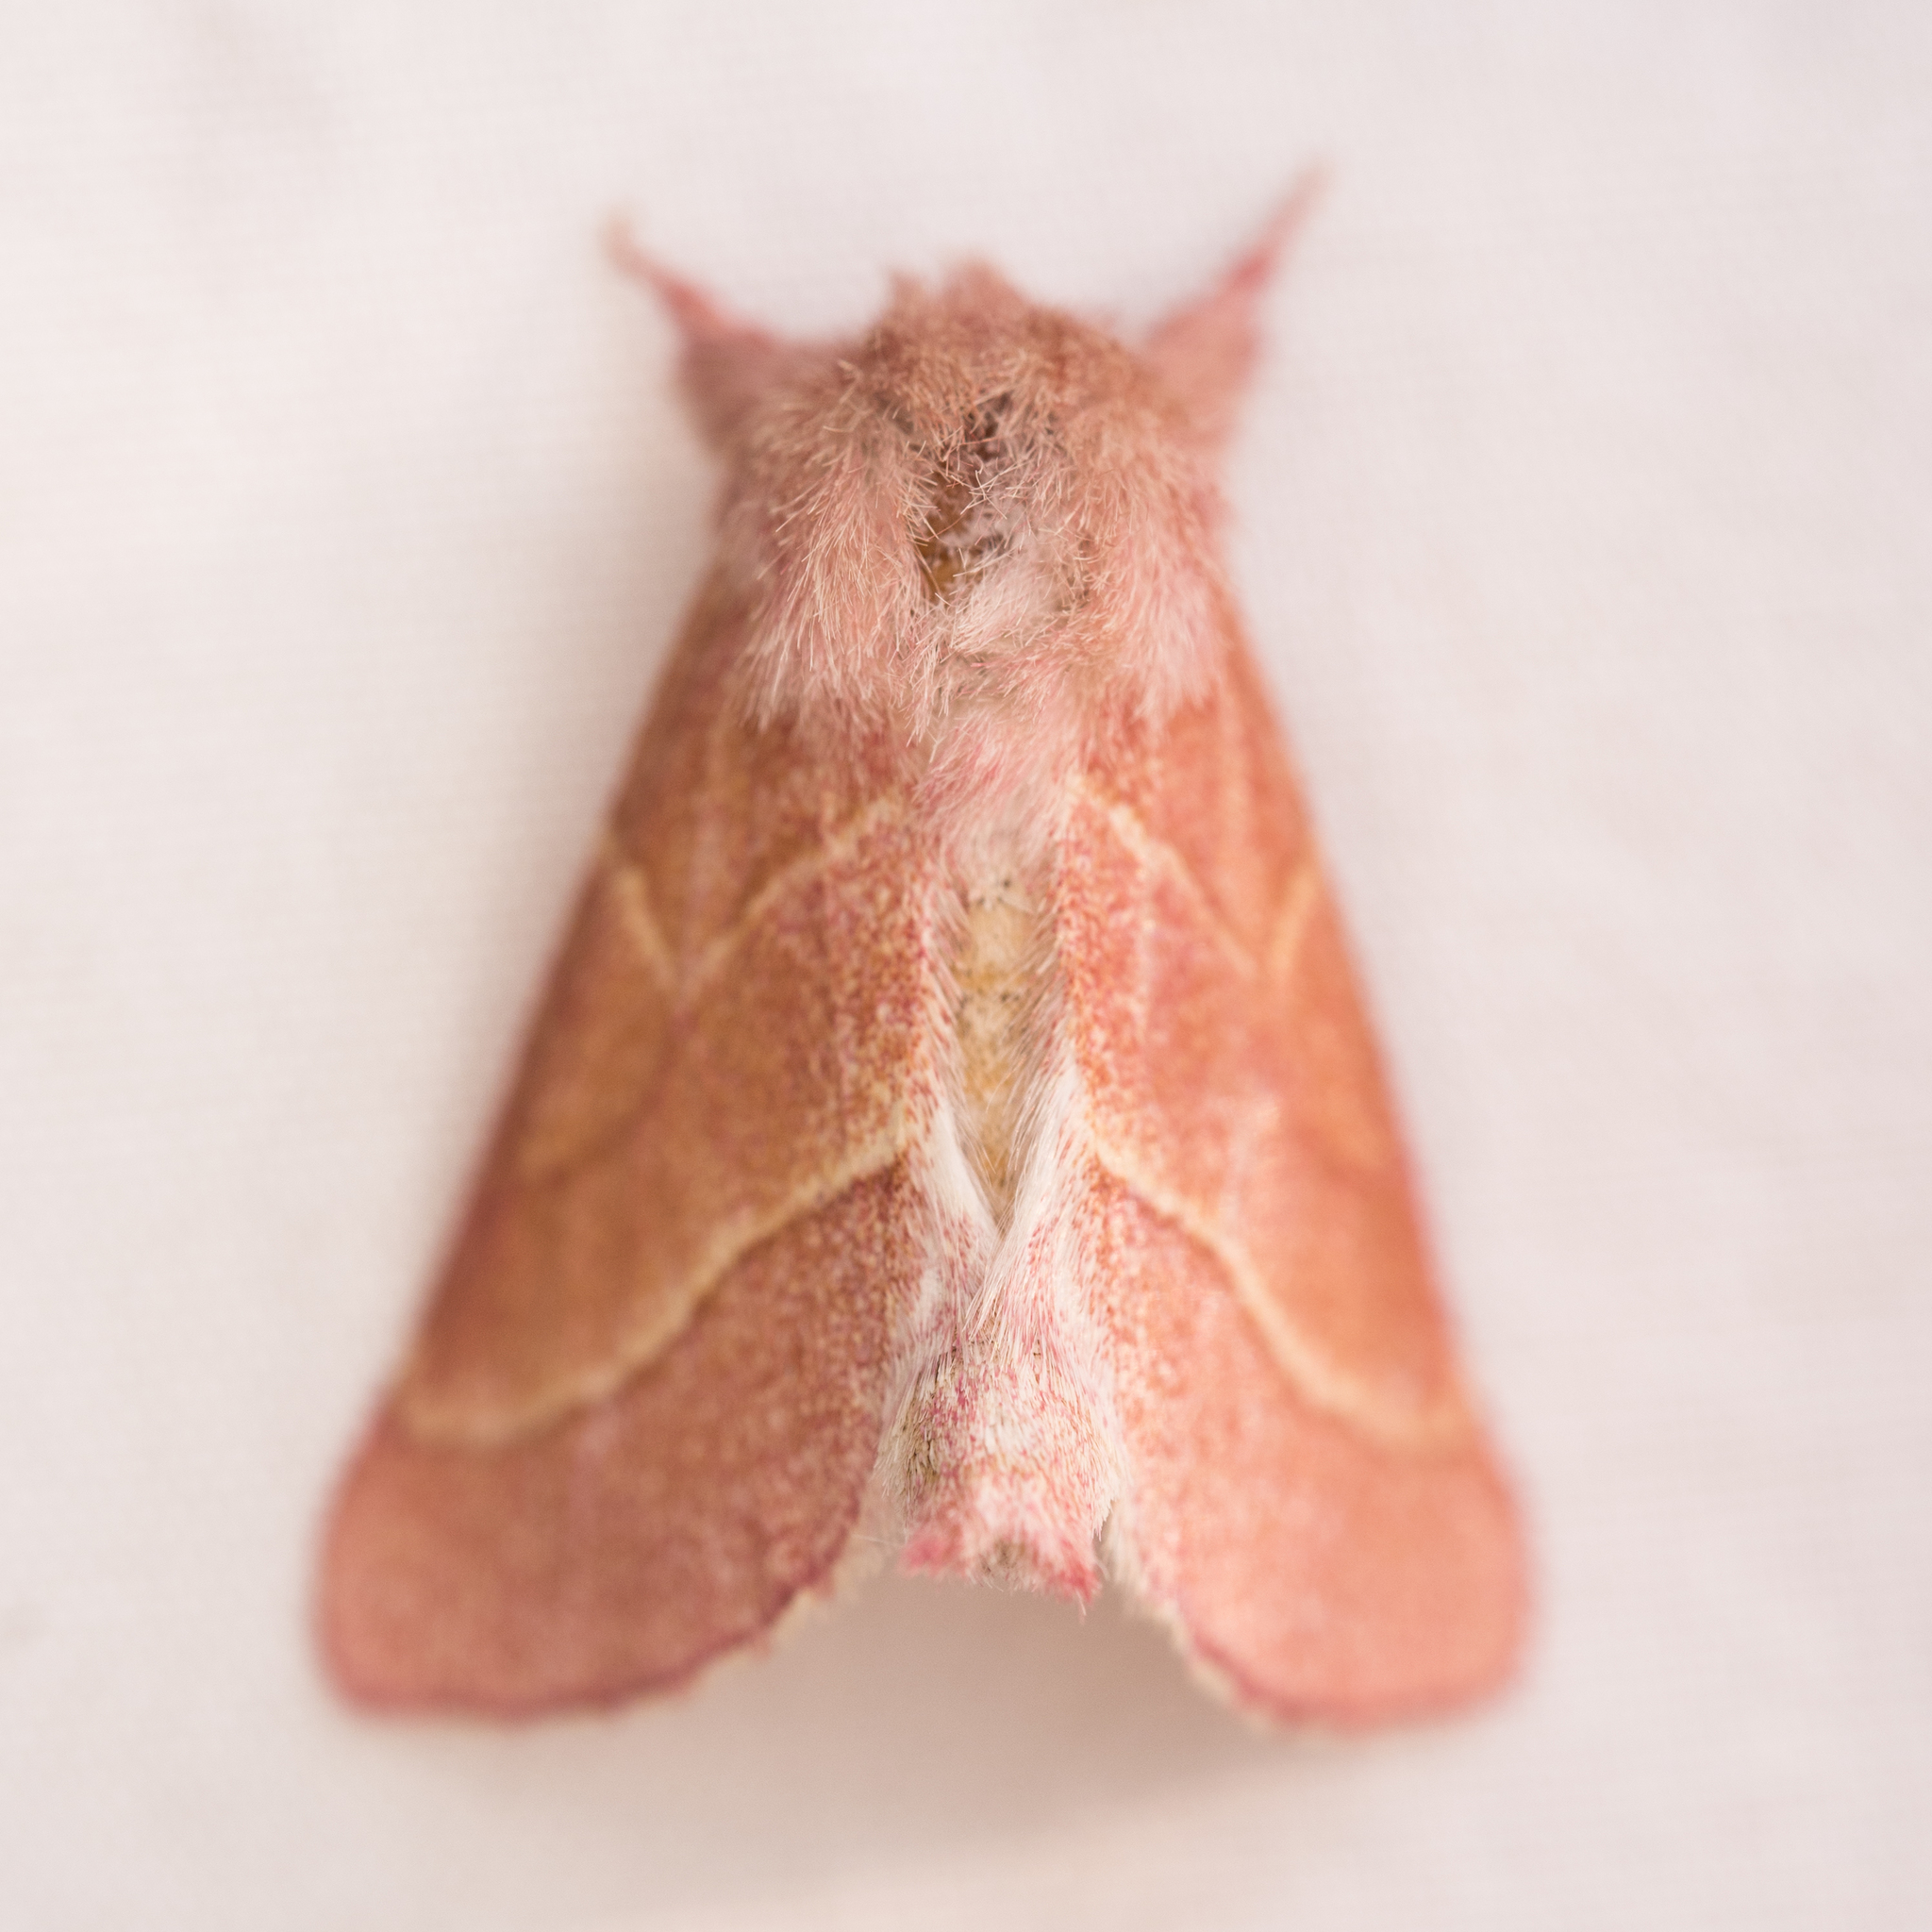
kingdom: Animalia
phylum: Arthropoda
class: Insecta
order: Lepidoptera
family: Notodontidae
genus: Hyparpax
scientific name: Hyparpax venus
